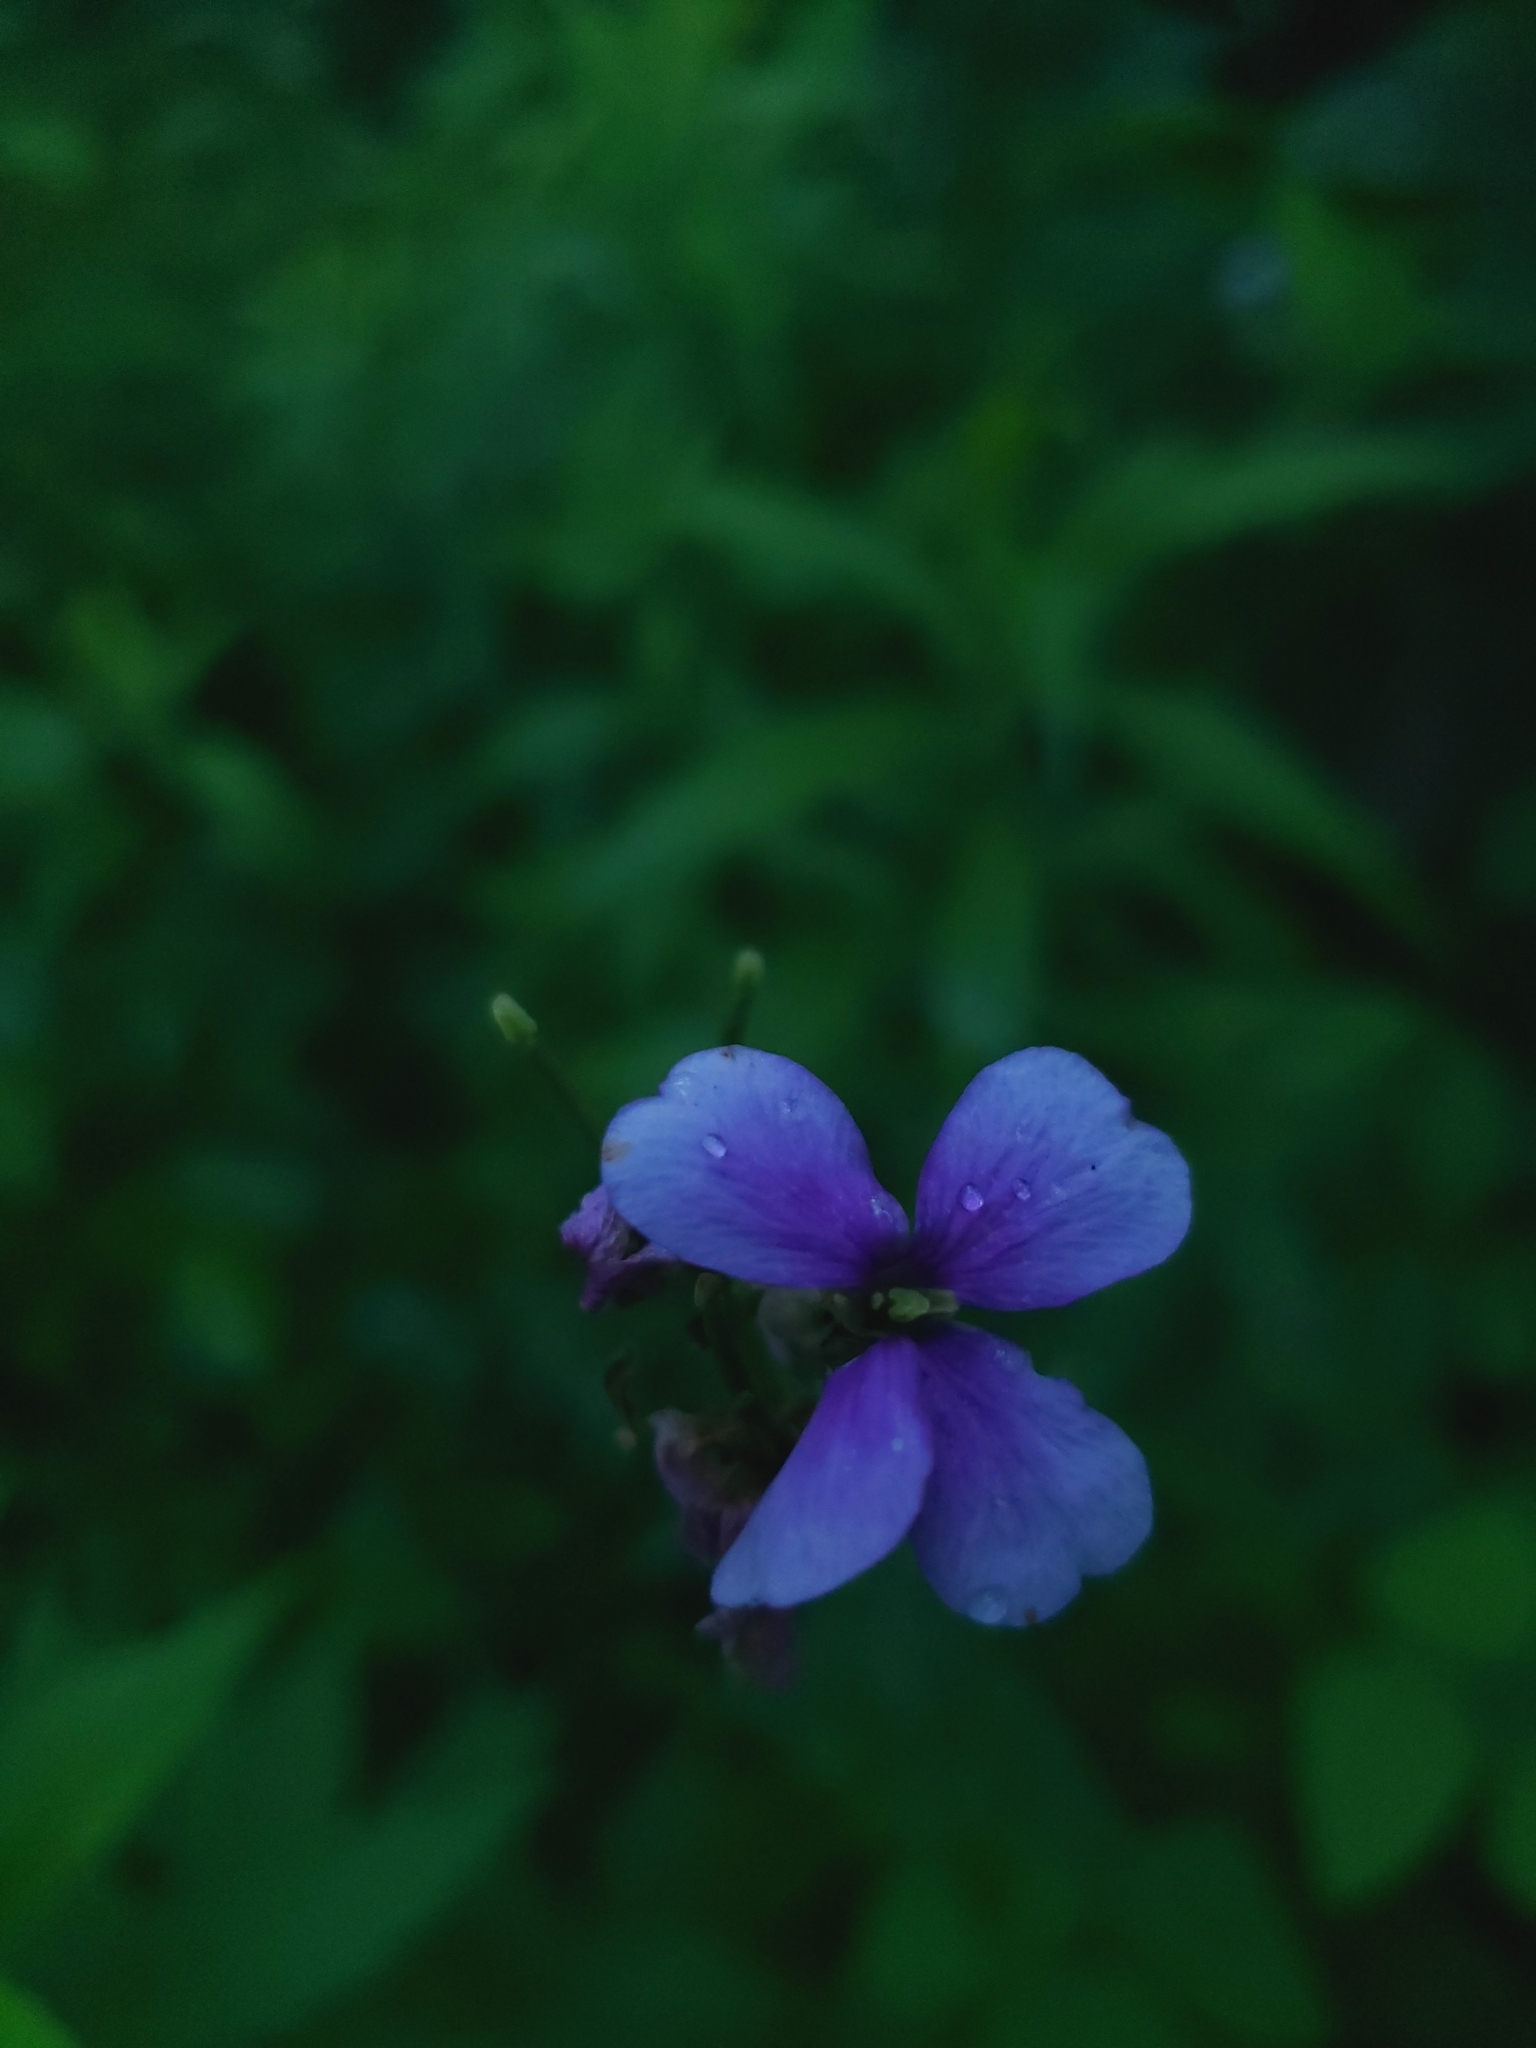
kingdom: Plantae
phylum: Tracheophyta
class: Magnoliopsida
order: Brassicales
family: Brassicaceae
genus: Hesperis
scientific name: Hesperis matronalis
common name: Dame's-violet
